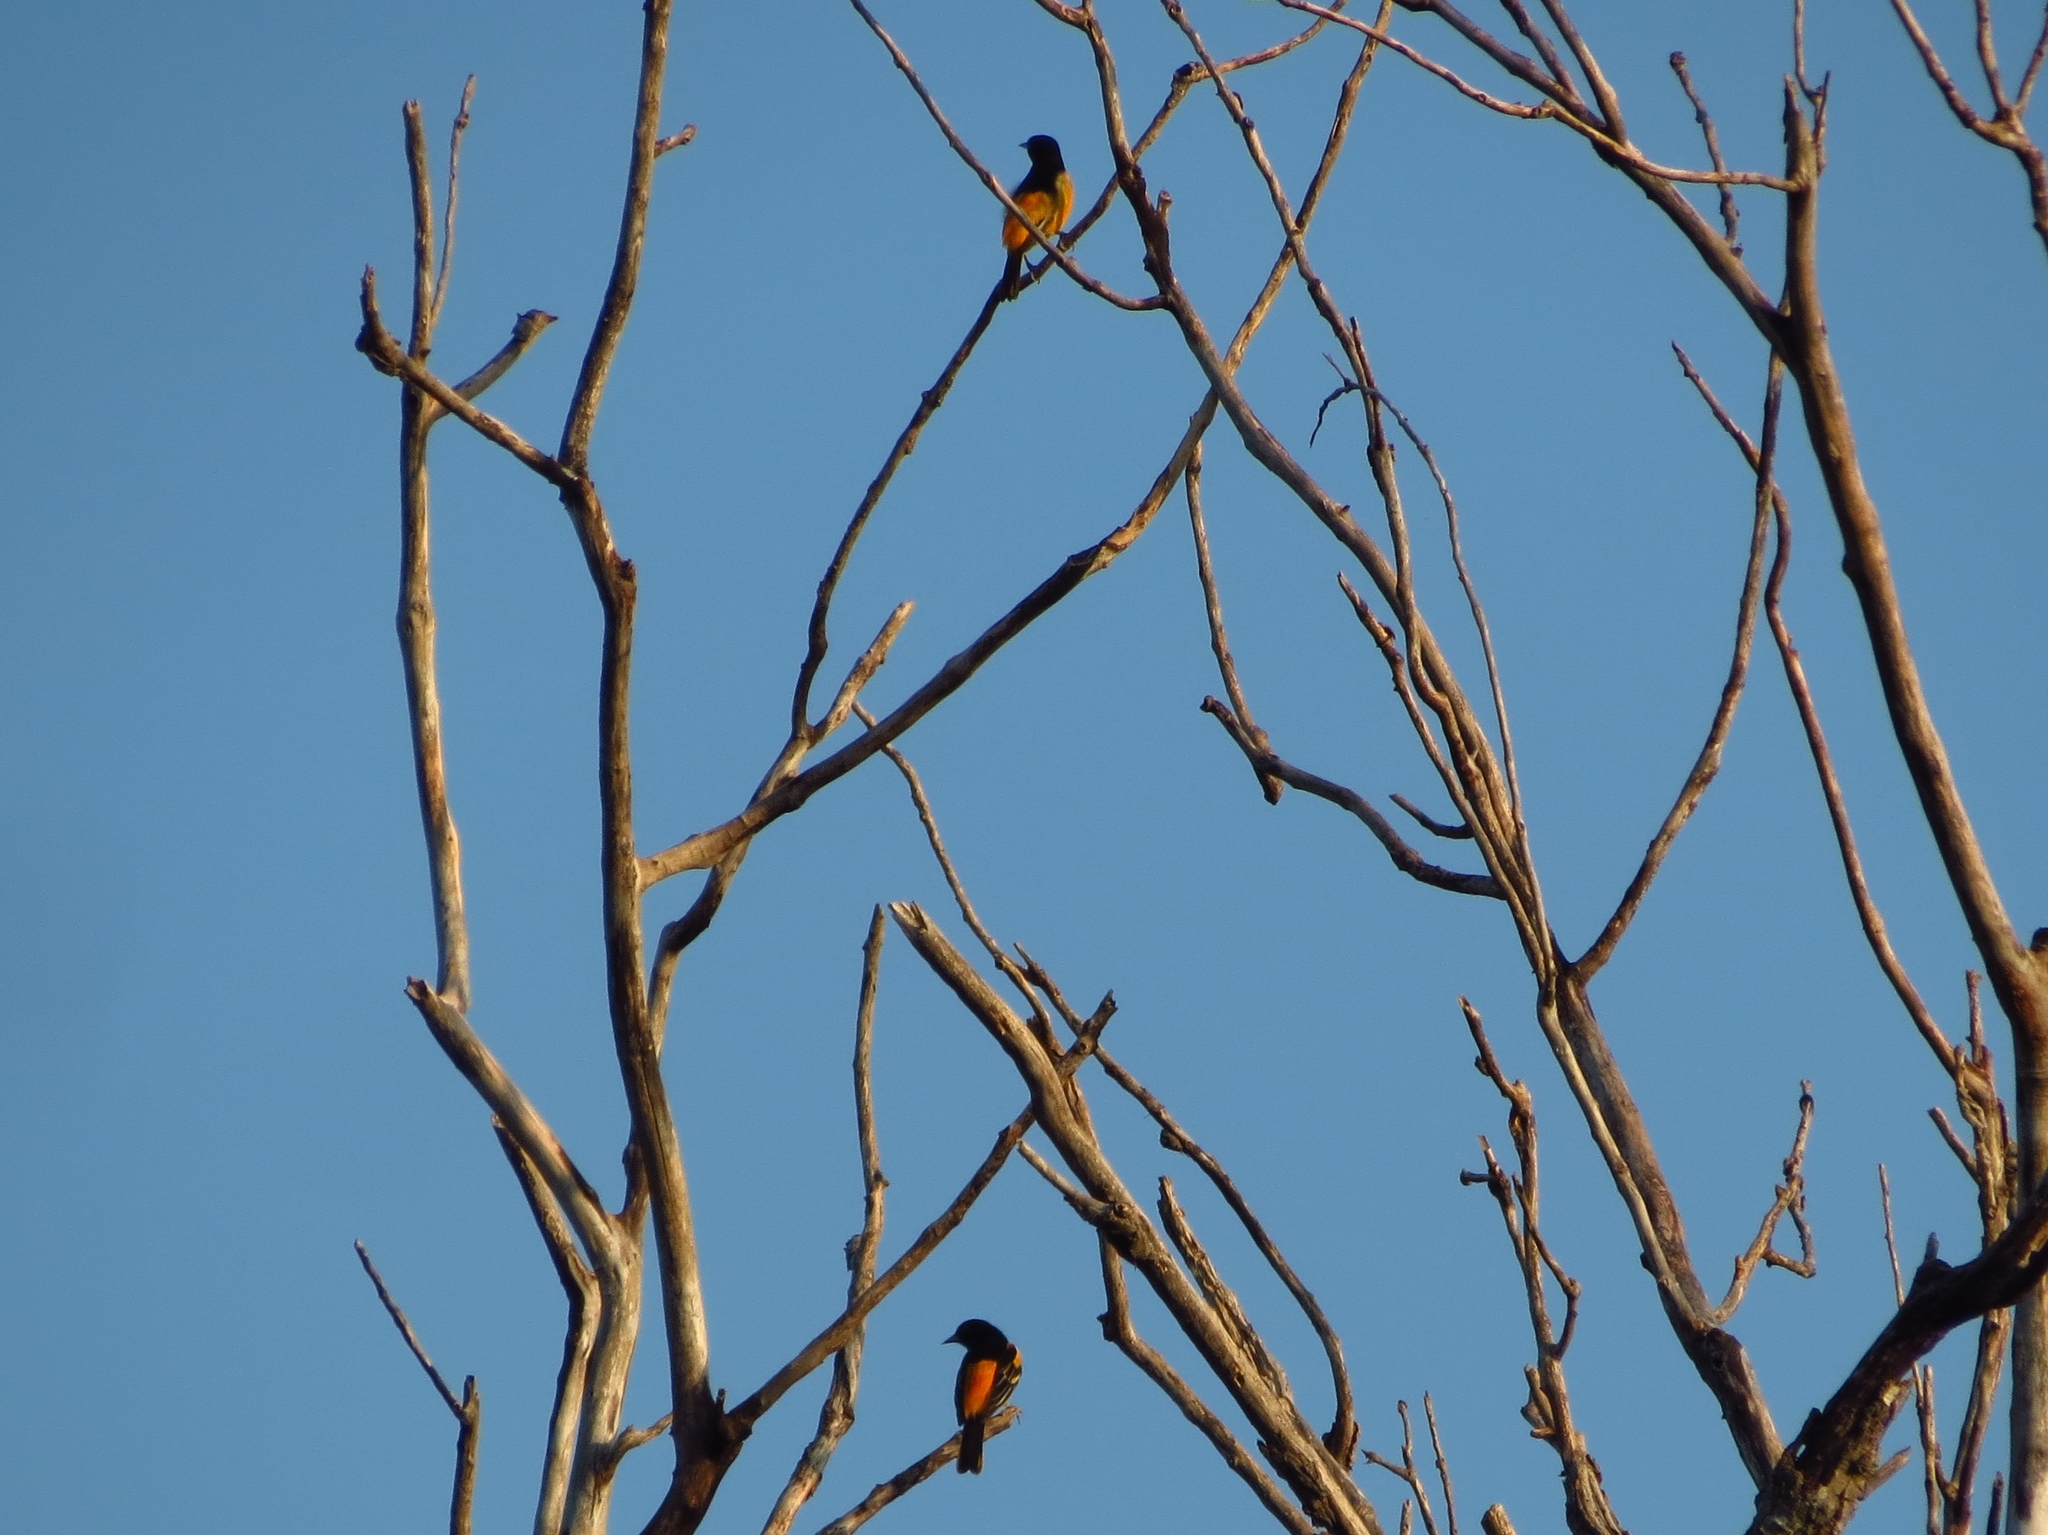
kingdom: Animalia
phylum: Chordata
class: Aves
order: Passeriformes
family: Icteridae
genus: Icterus
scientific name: Icterus galbula
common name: Baltimore oriole
